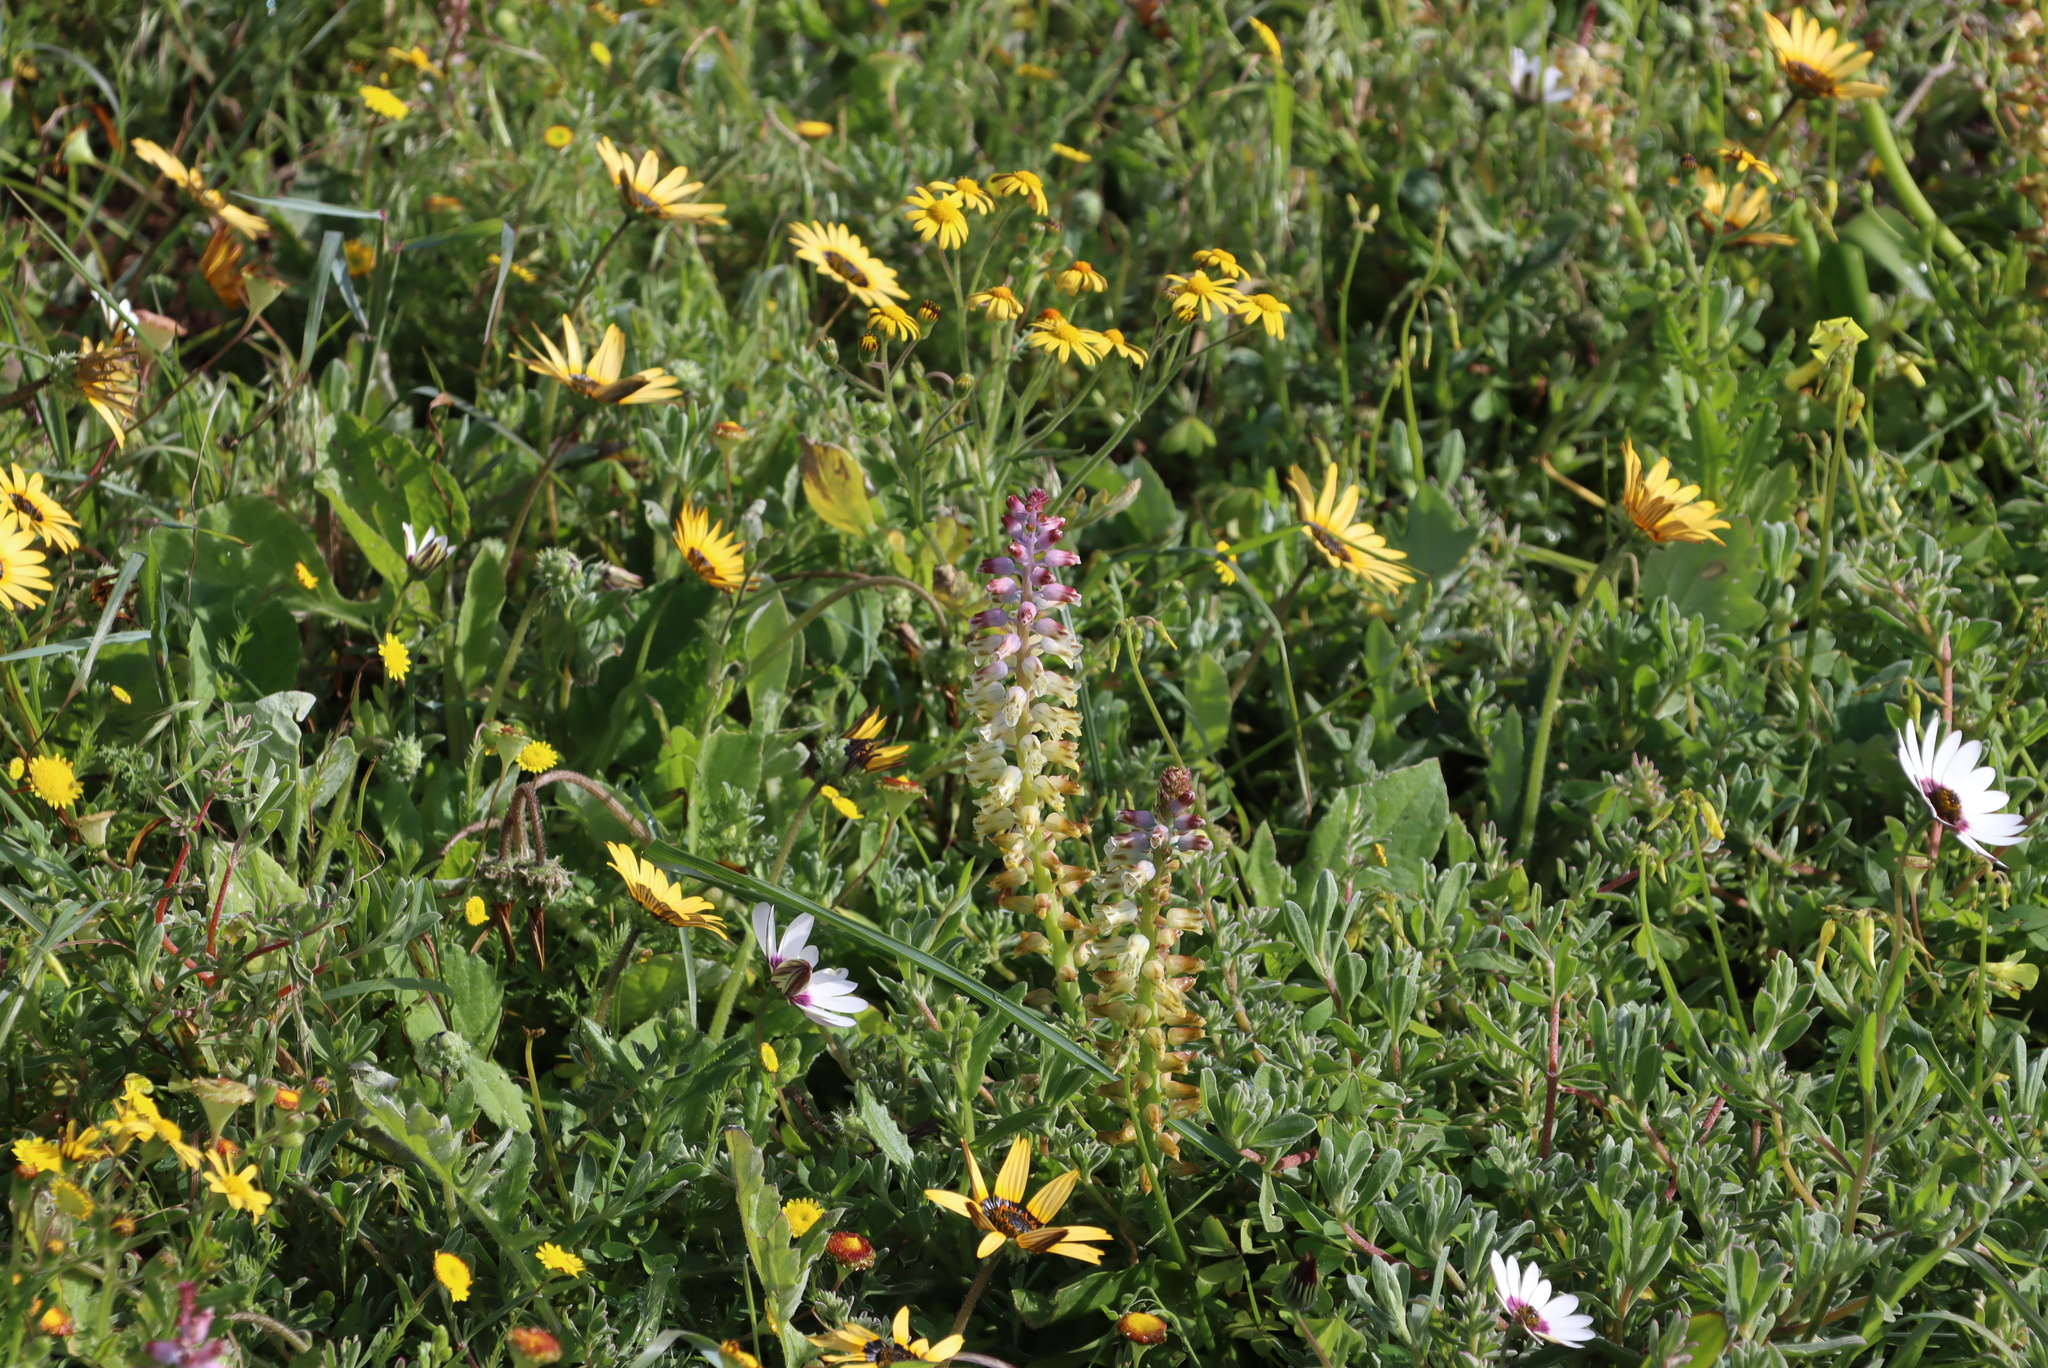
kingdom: Plantae
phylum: Tracheophyta
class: Liliopsida
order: Asparagales
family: Asparagaceae
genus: Lachenalia
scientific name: Lachenalia pallida
